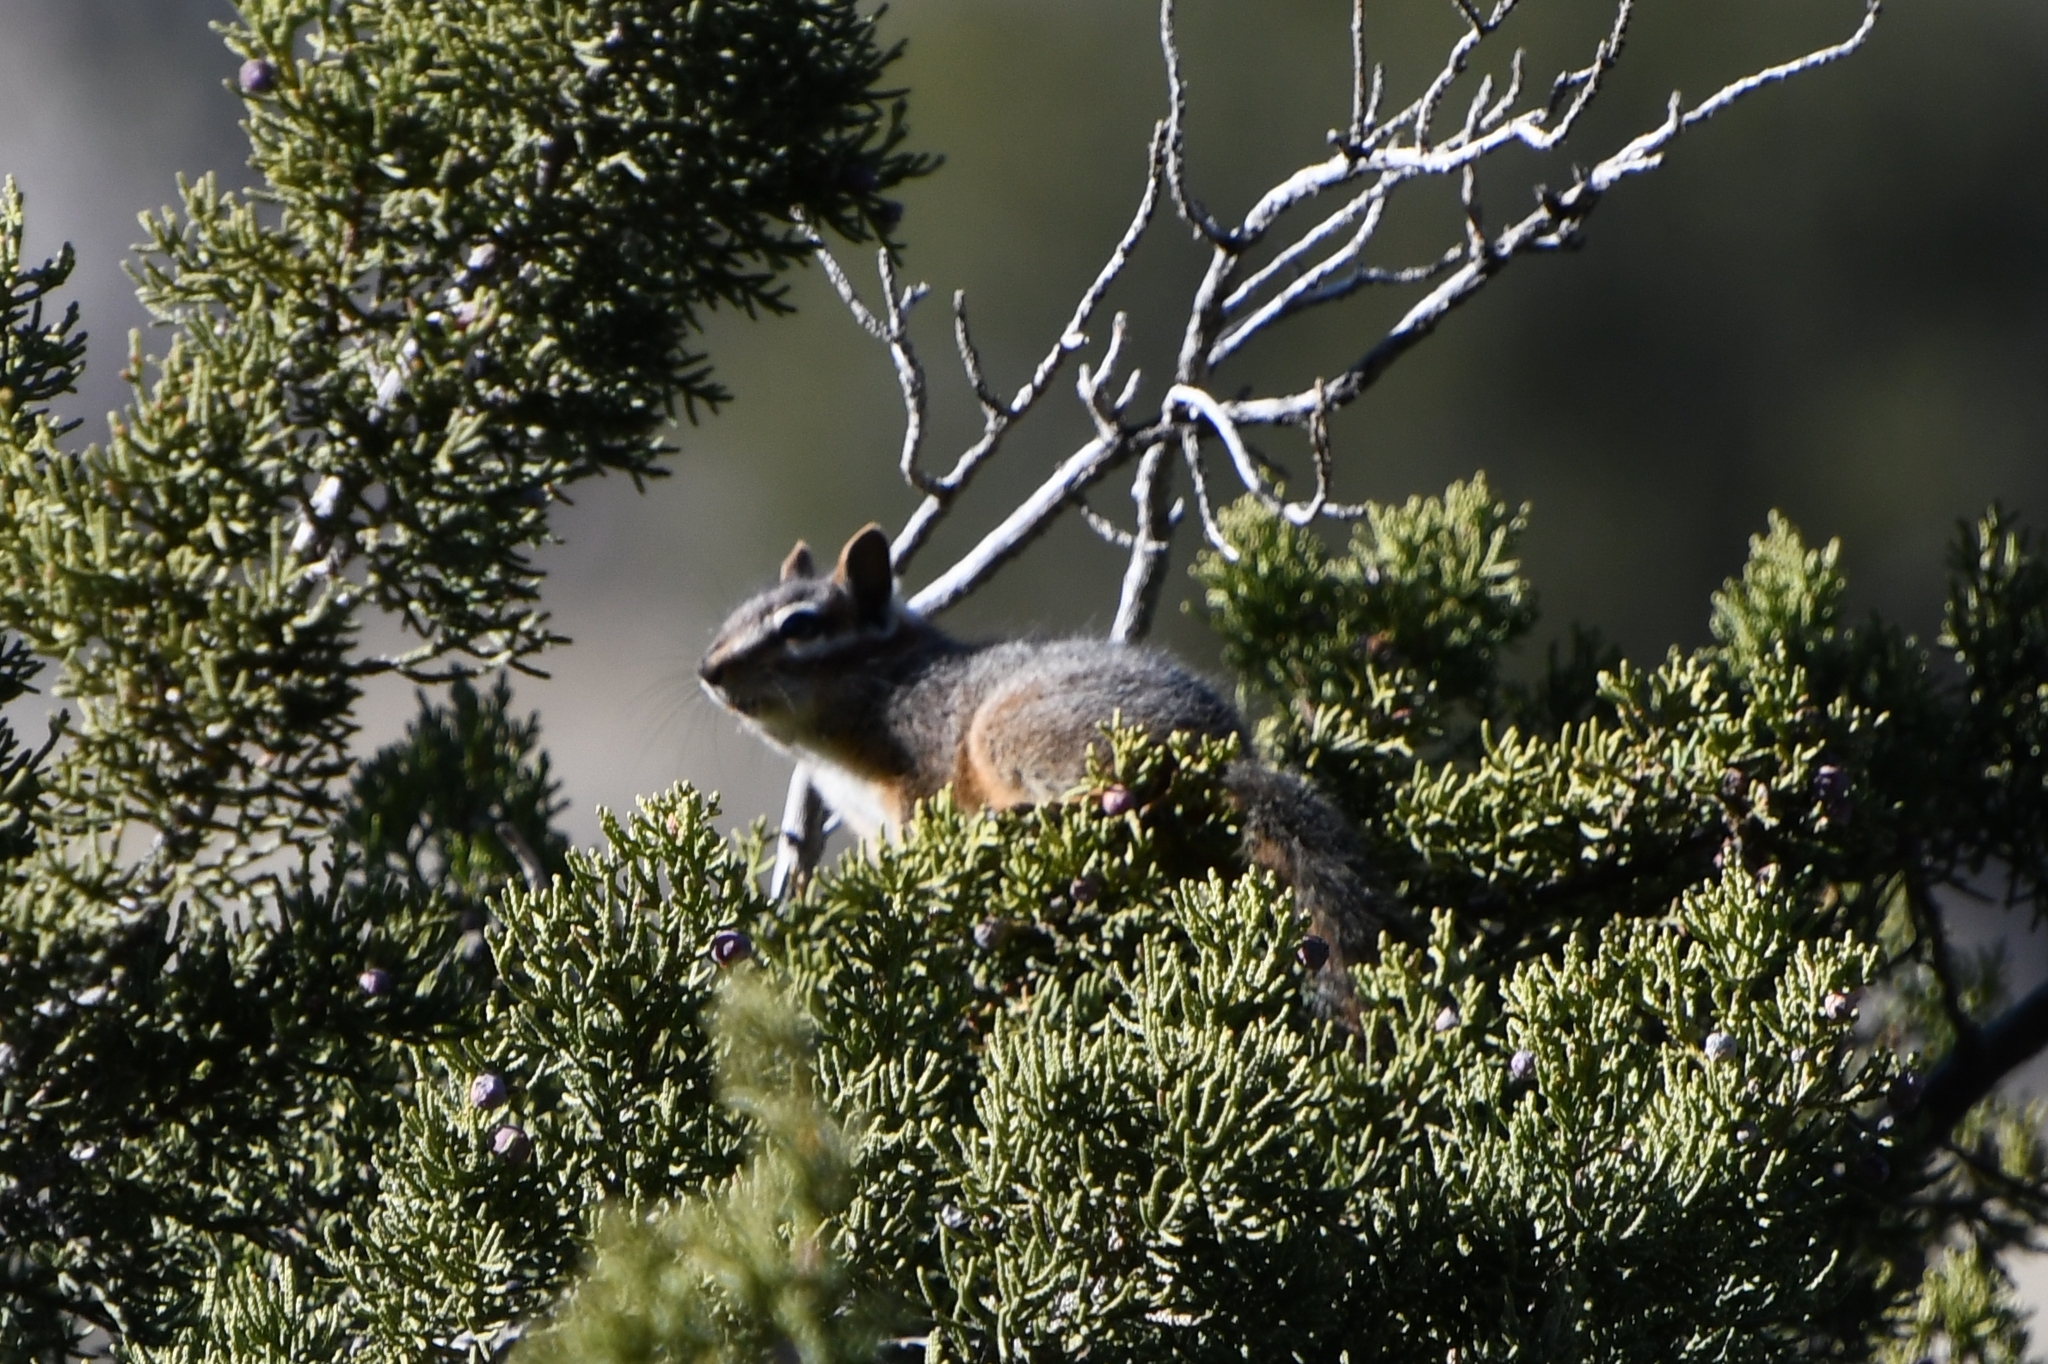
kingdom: Animalia
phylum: Chordata
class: Mammalia
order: Rodentia
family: Sciuridae
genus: Tamias
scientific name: Tamias dorsalis
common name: Cliff chipmunk
